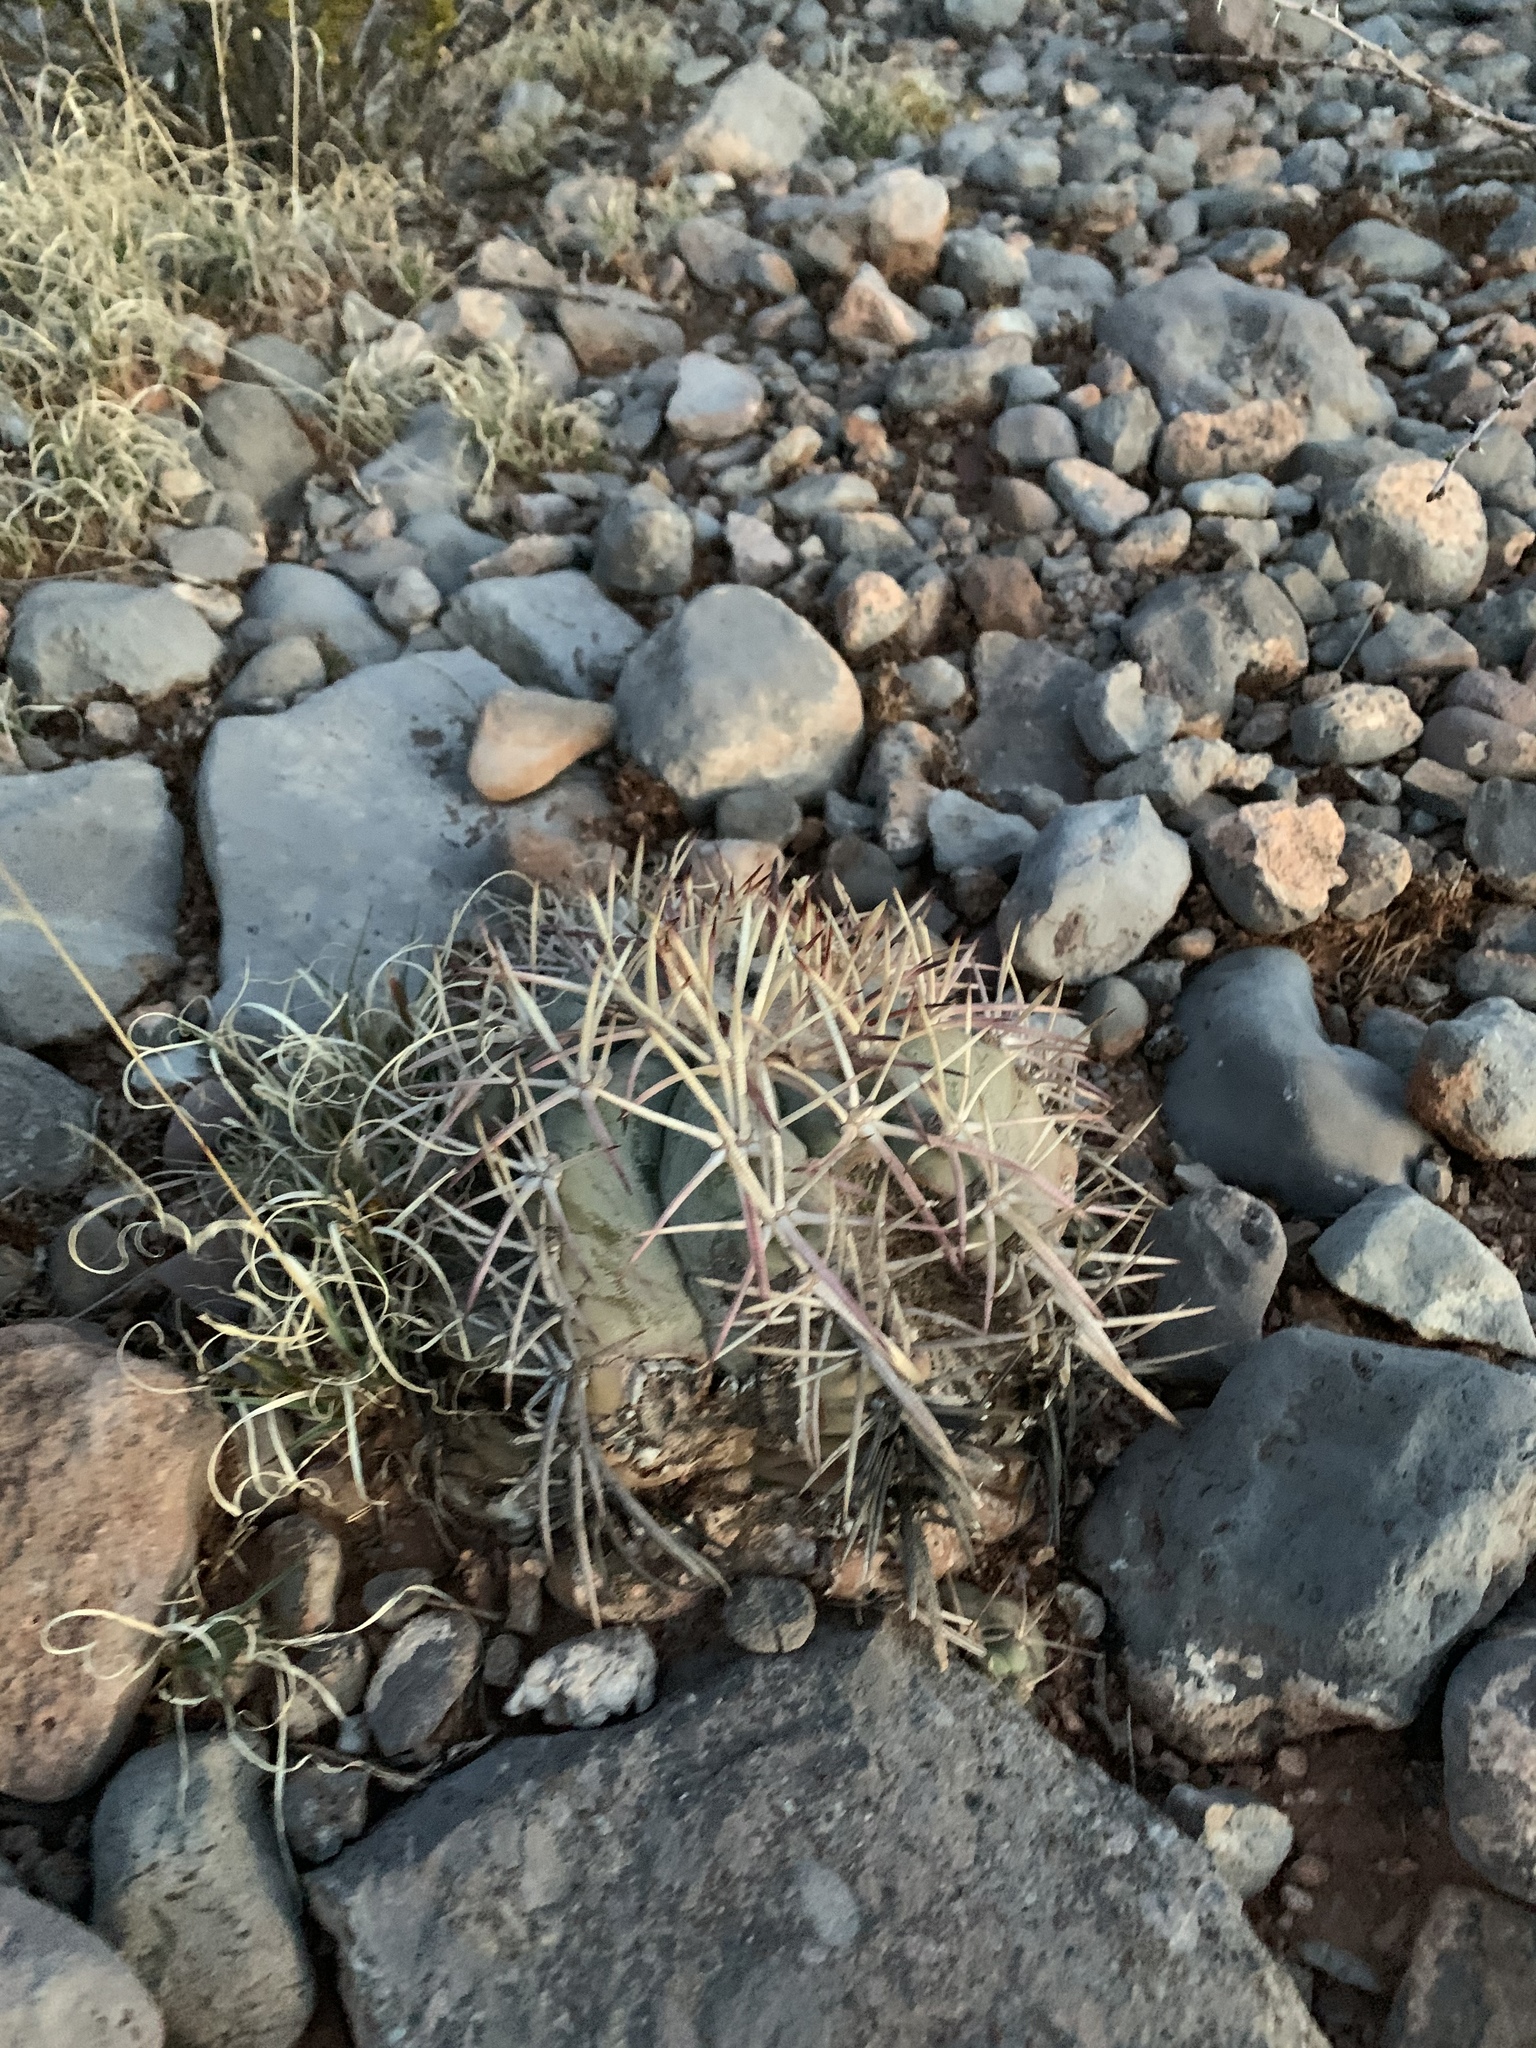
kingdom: Plantae
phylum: Tracheophyta
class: Magnoliopsida
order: Caryophyllales
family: Cactaceae
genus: Echinocactus
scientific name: Echinocactus horizonthalonius
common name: Devilshead
